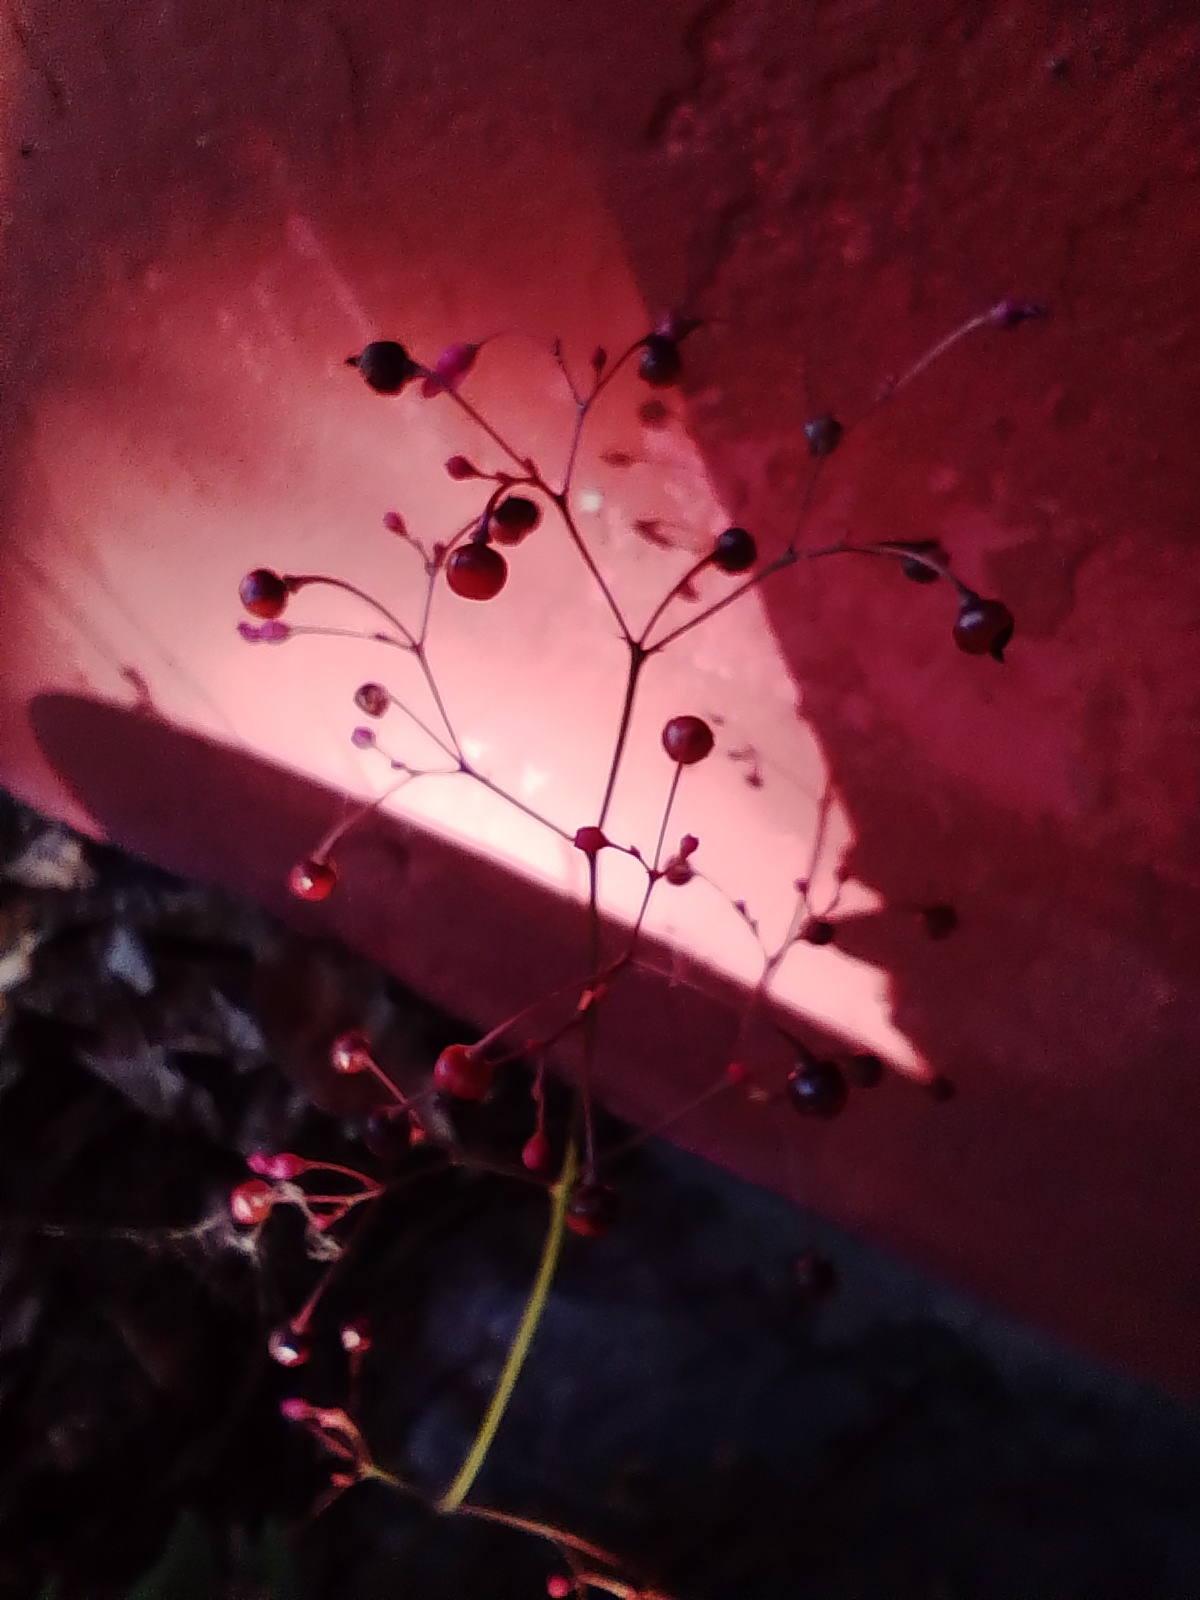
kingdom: Plantae
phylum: Tracheophyta
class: Magnoliopsida
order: Caryophyllales
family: Talinaceae
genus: Talinum
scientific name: Talinum paniculatum
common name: Jewels of opar
